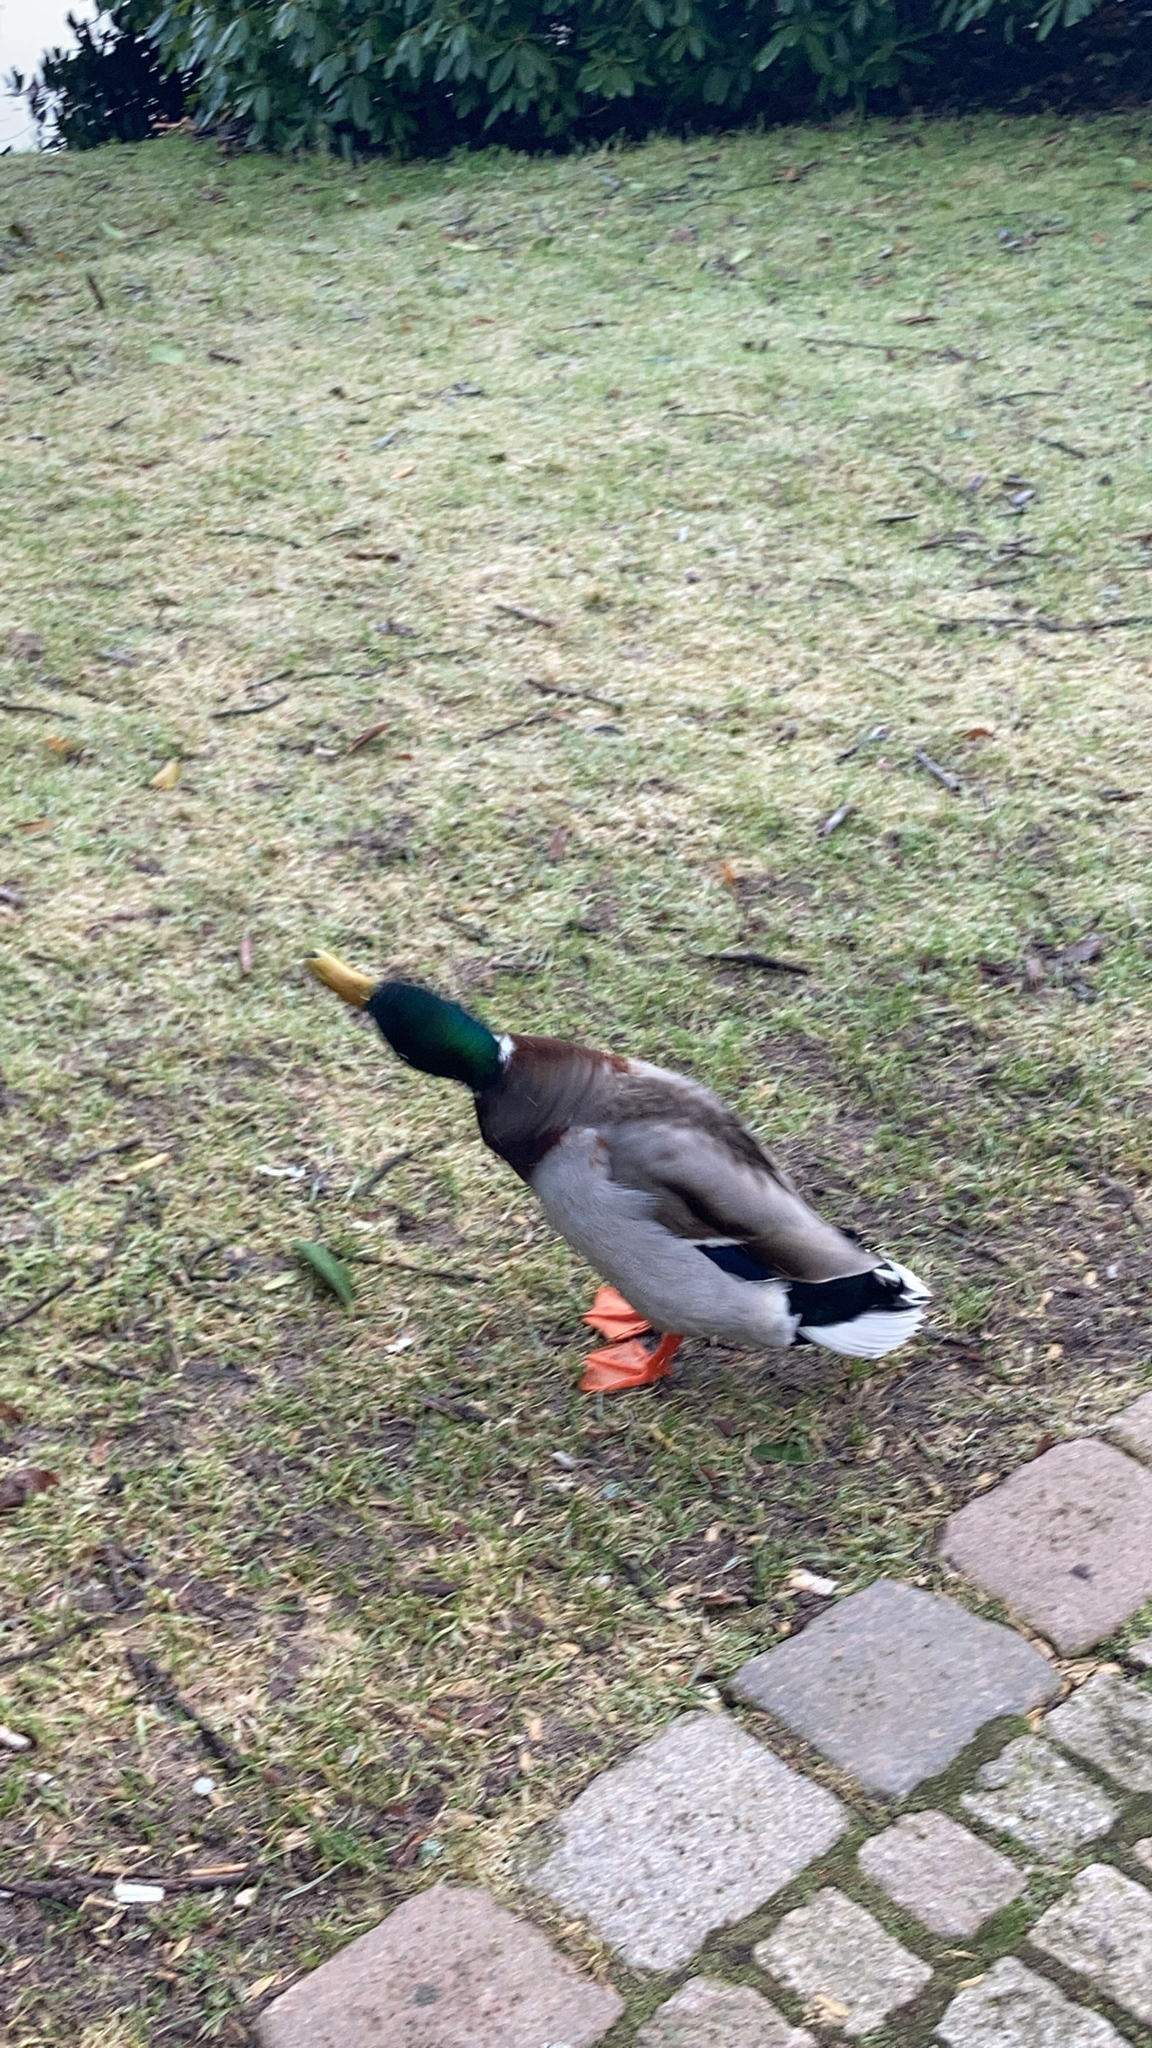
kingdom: Animalia
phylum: Chordata
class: Aves
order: Anseriformes
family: Anatidae
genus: Anas
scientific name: Anas platyrhynchos
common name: Mallard
